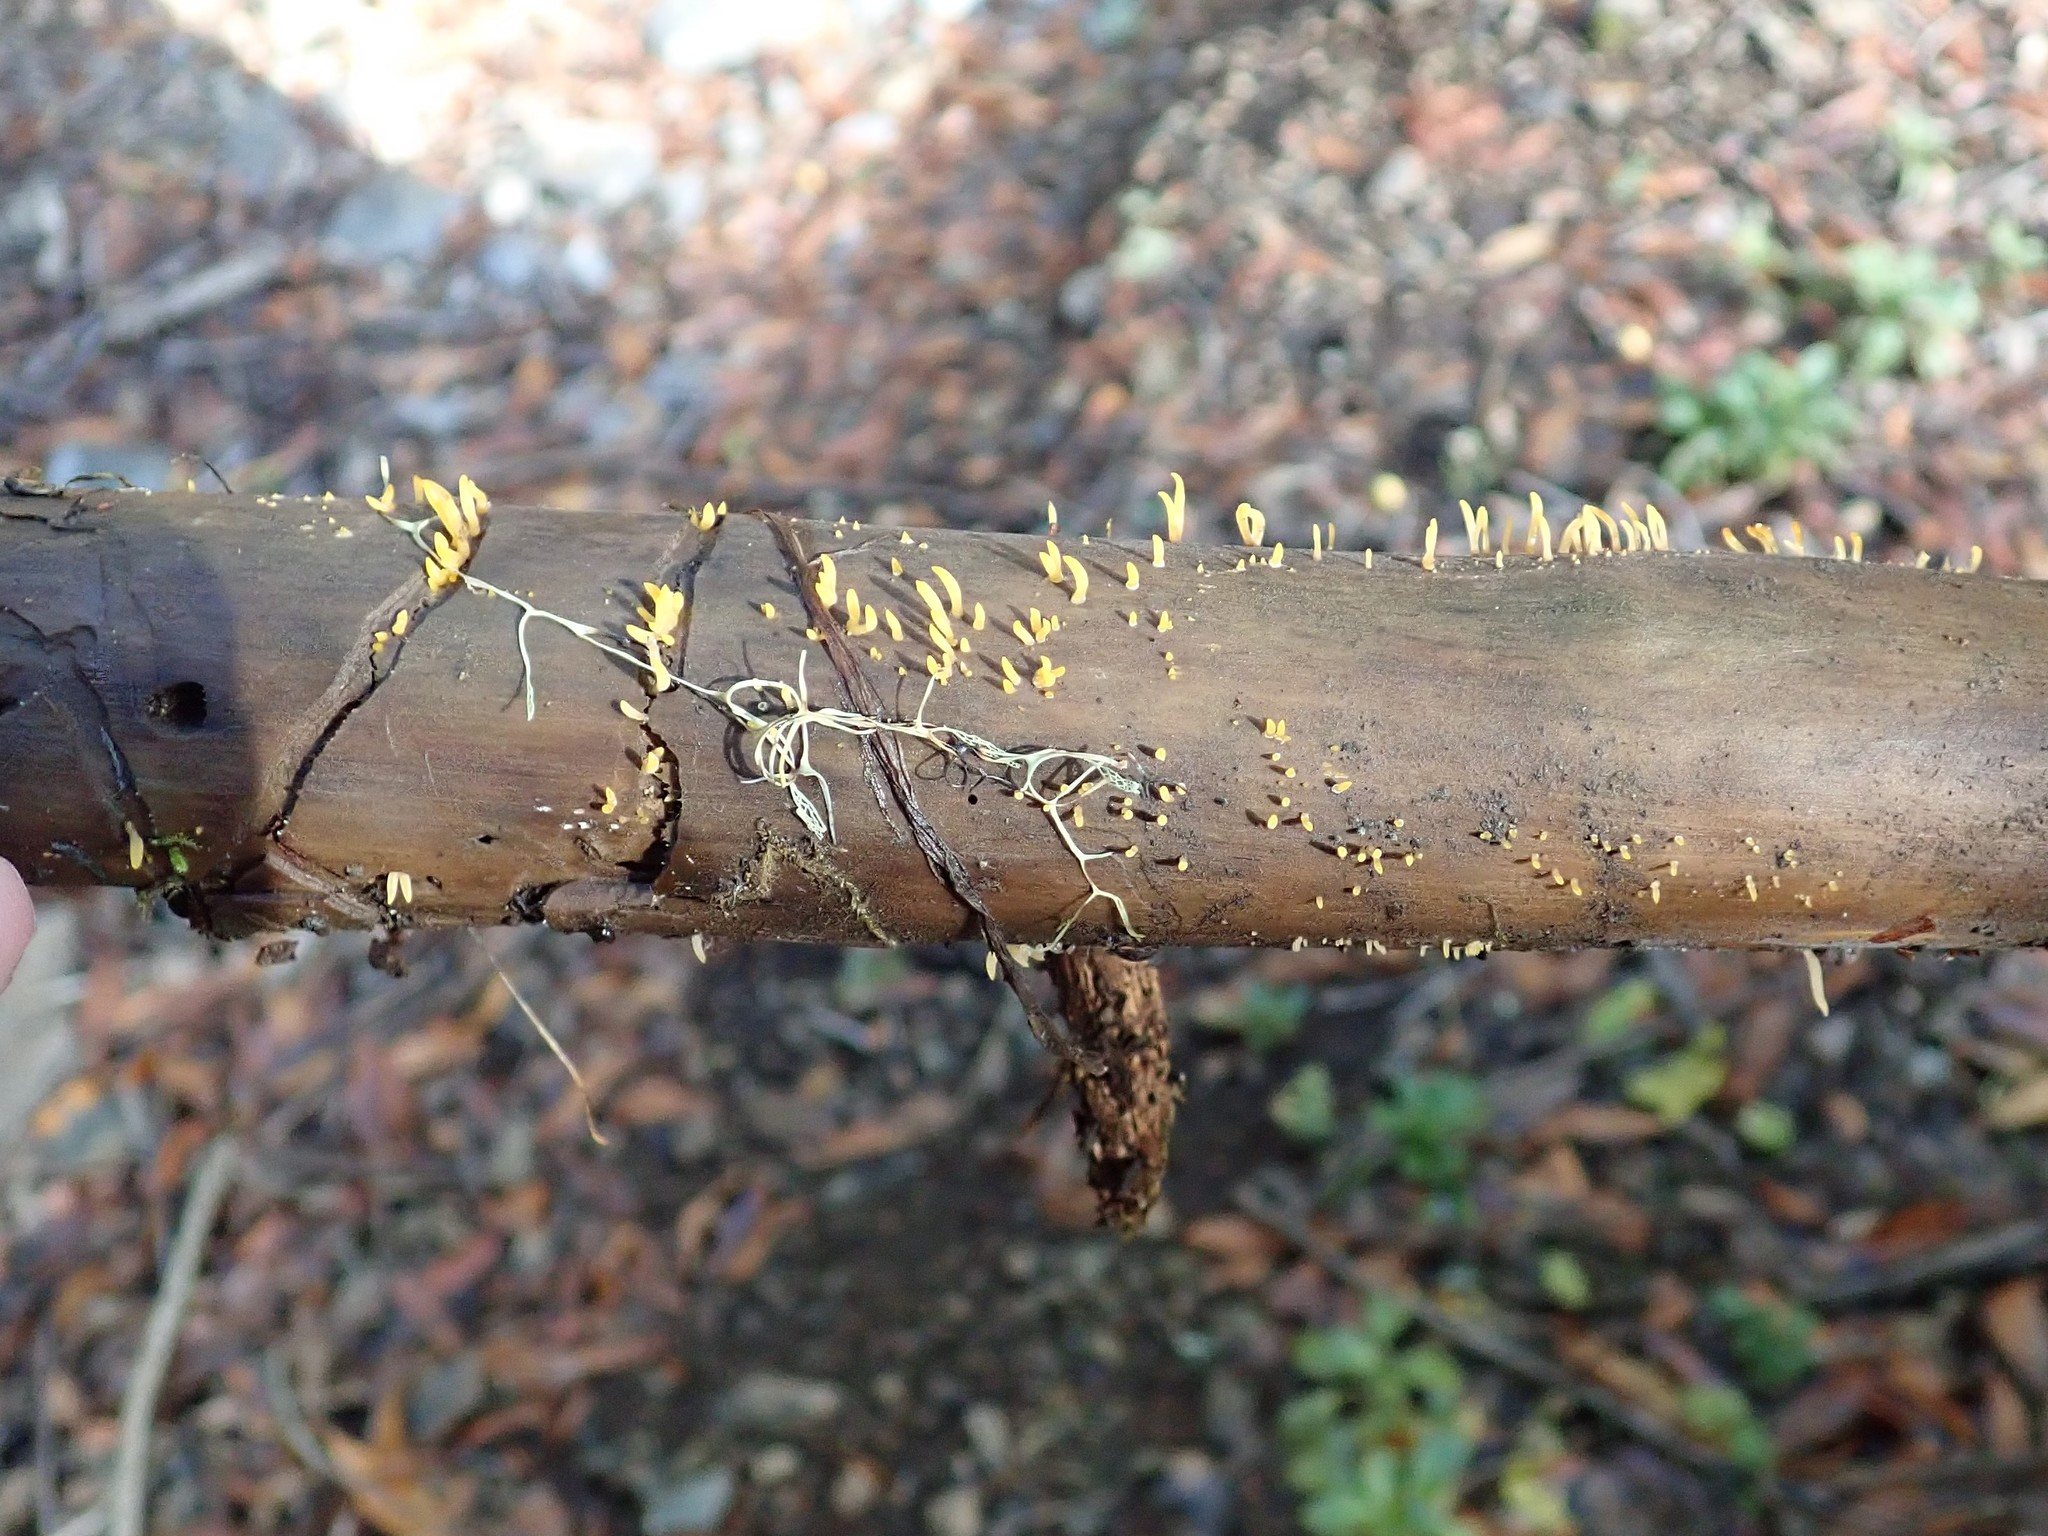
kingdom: Fungi
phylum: Basidiomycota
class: Dacrymycetes
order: Dacrymycetales
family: Dacrymycetaceae
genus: Calocera
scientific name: Calocera cornea
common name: Small stagshorn
